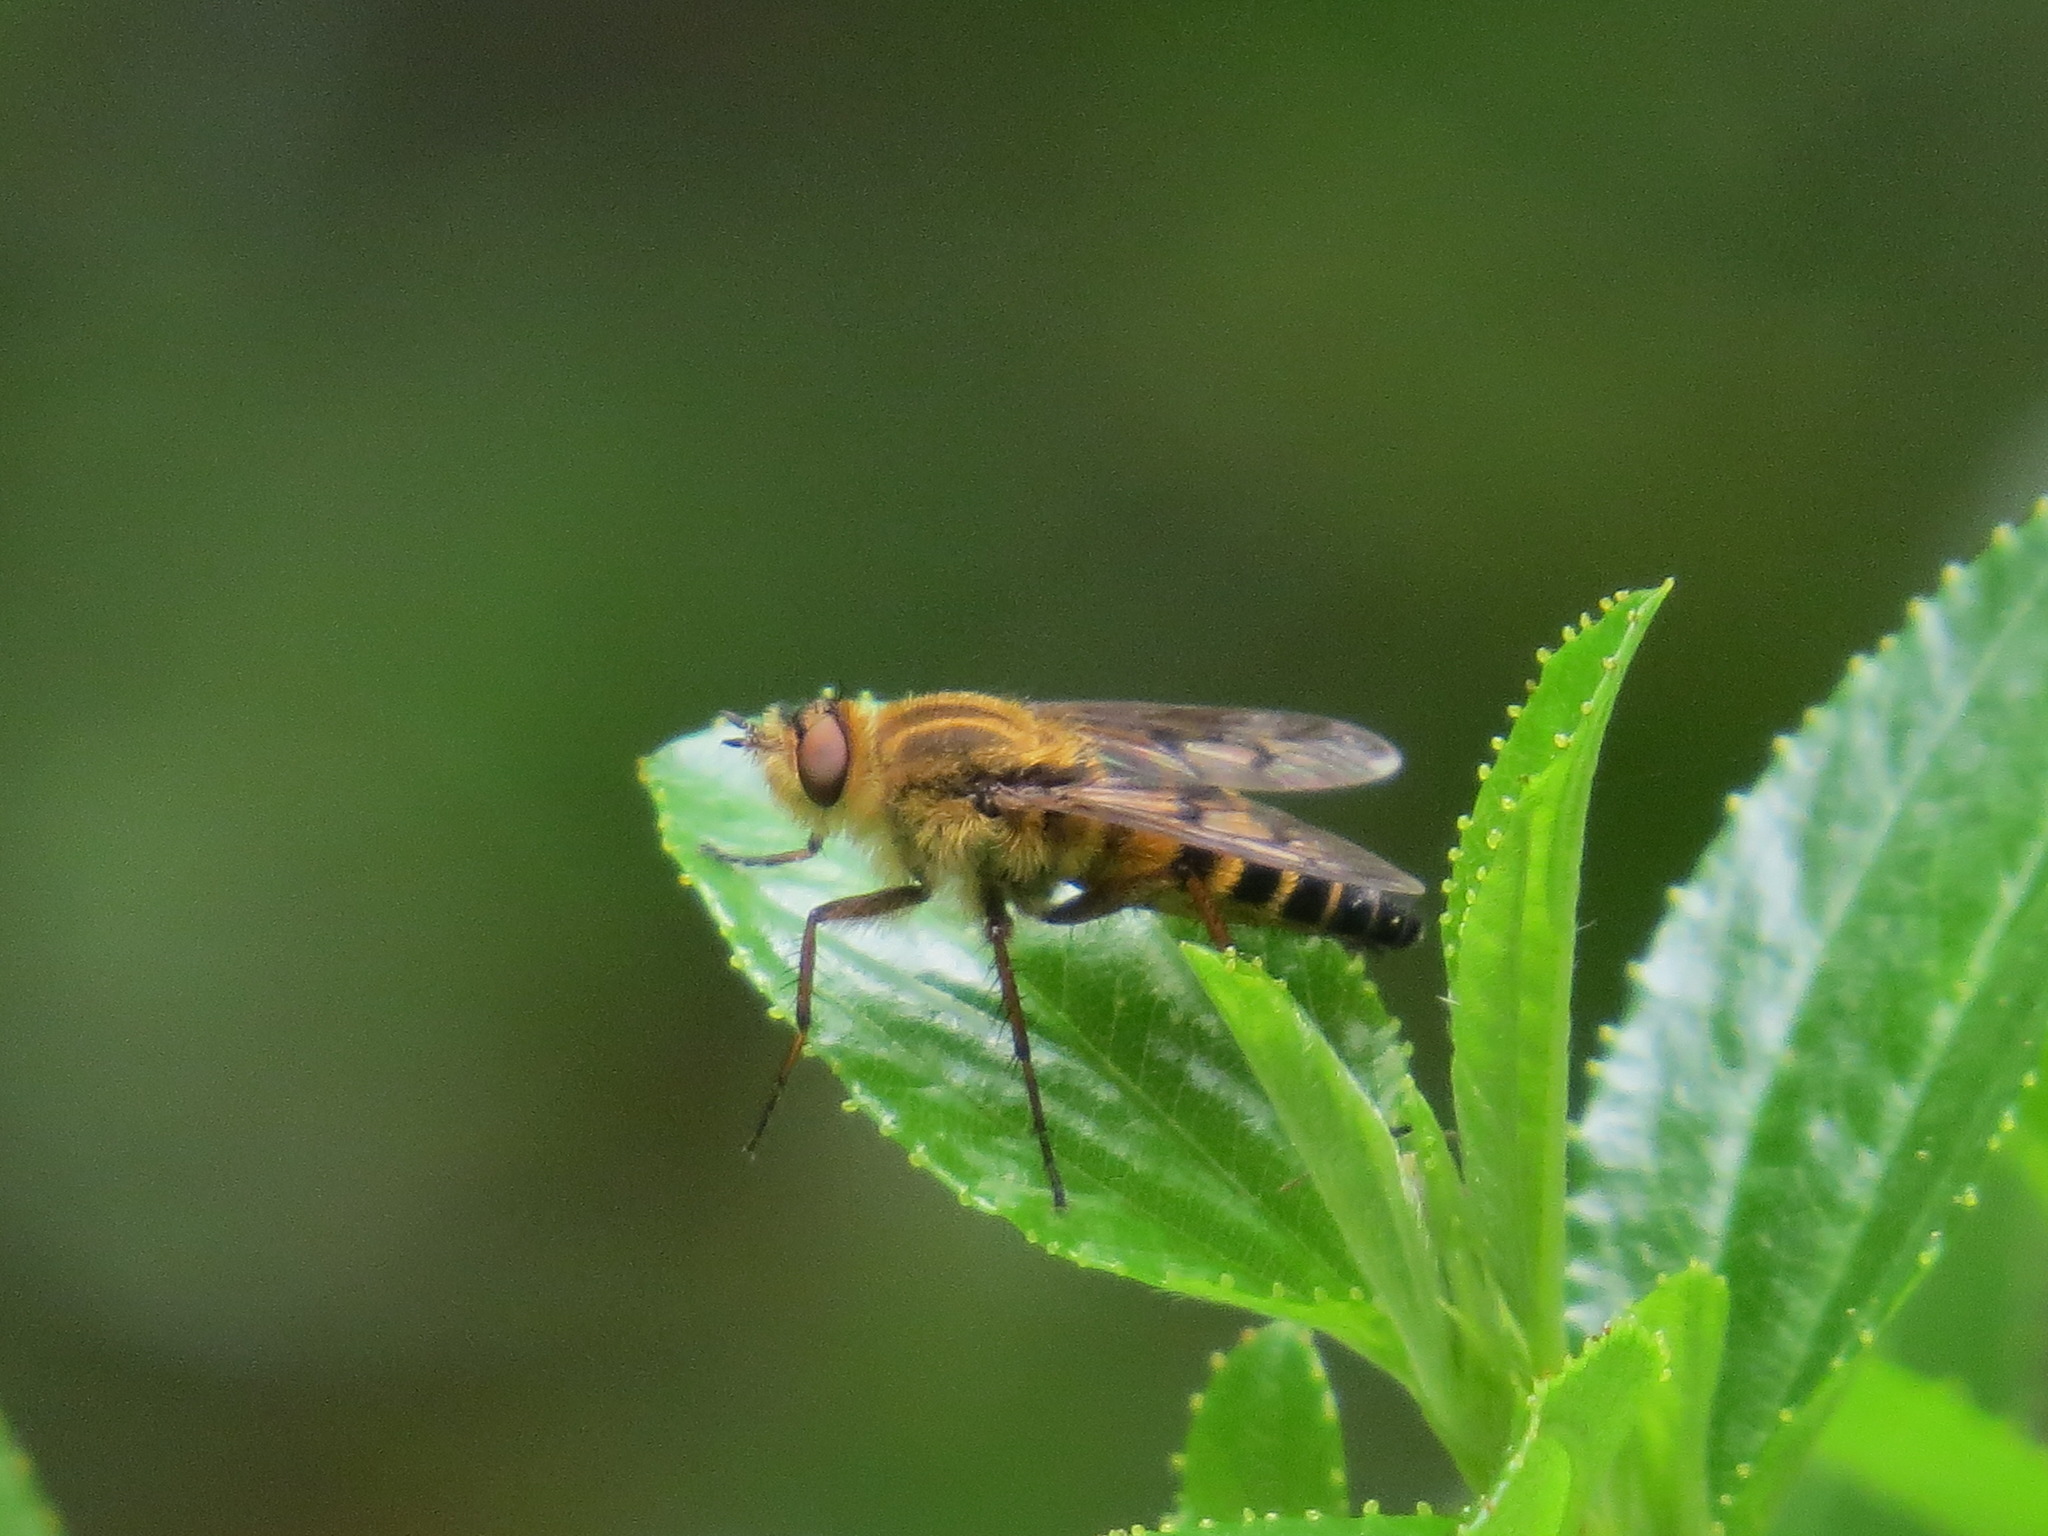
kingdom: Animalia
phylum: Arthropoda
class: Insecta
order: Diptera
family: Therevidae
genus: Thereva
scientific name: Thereva hirticeps
